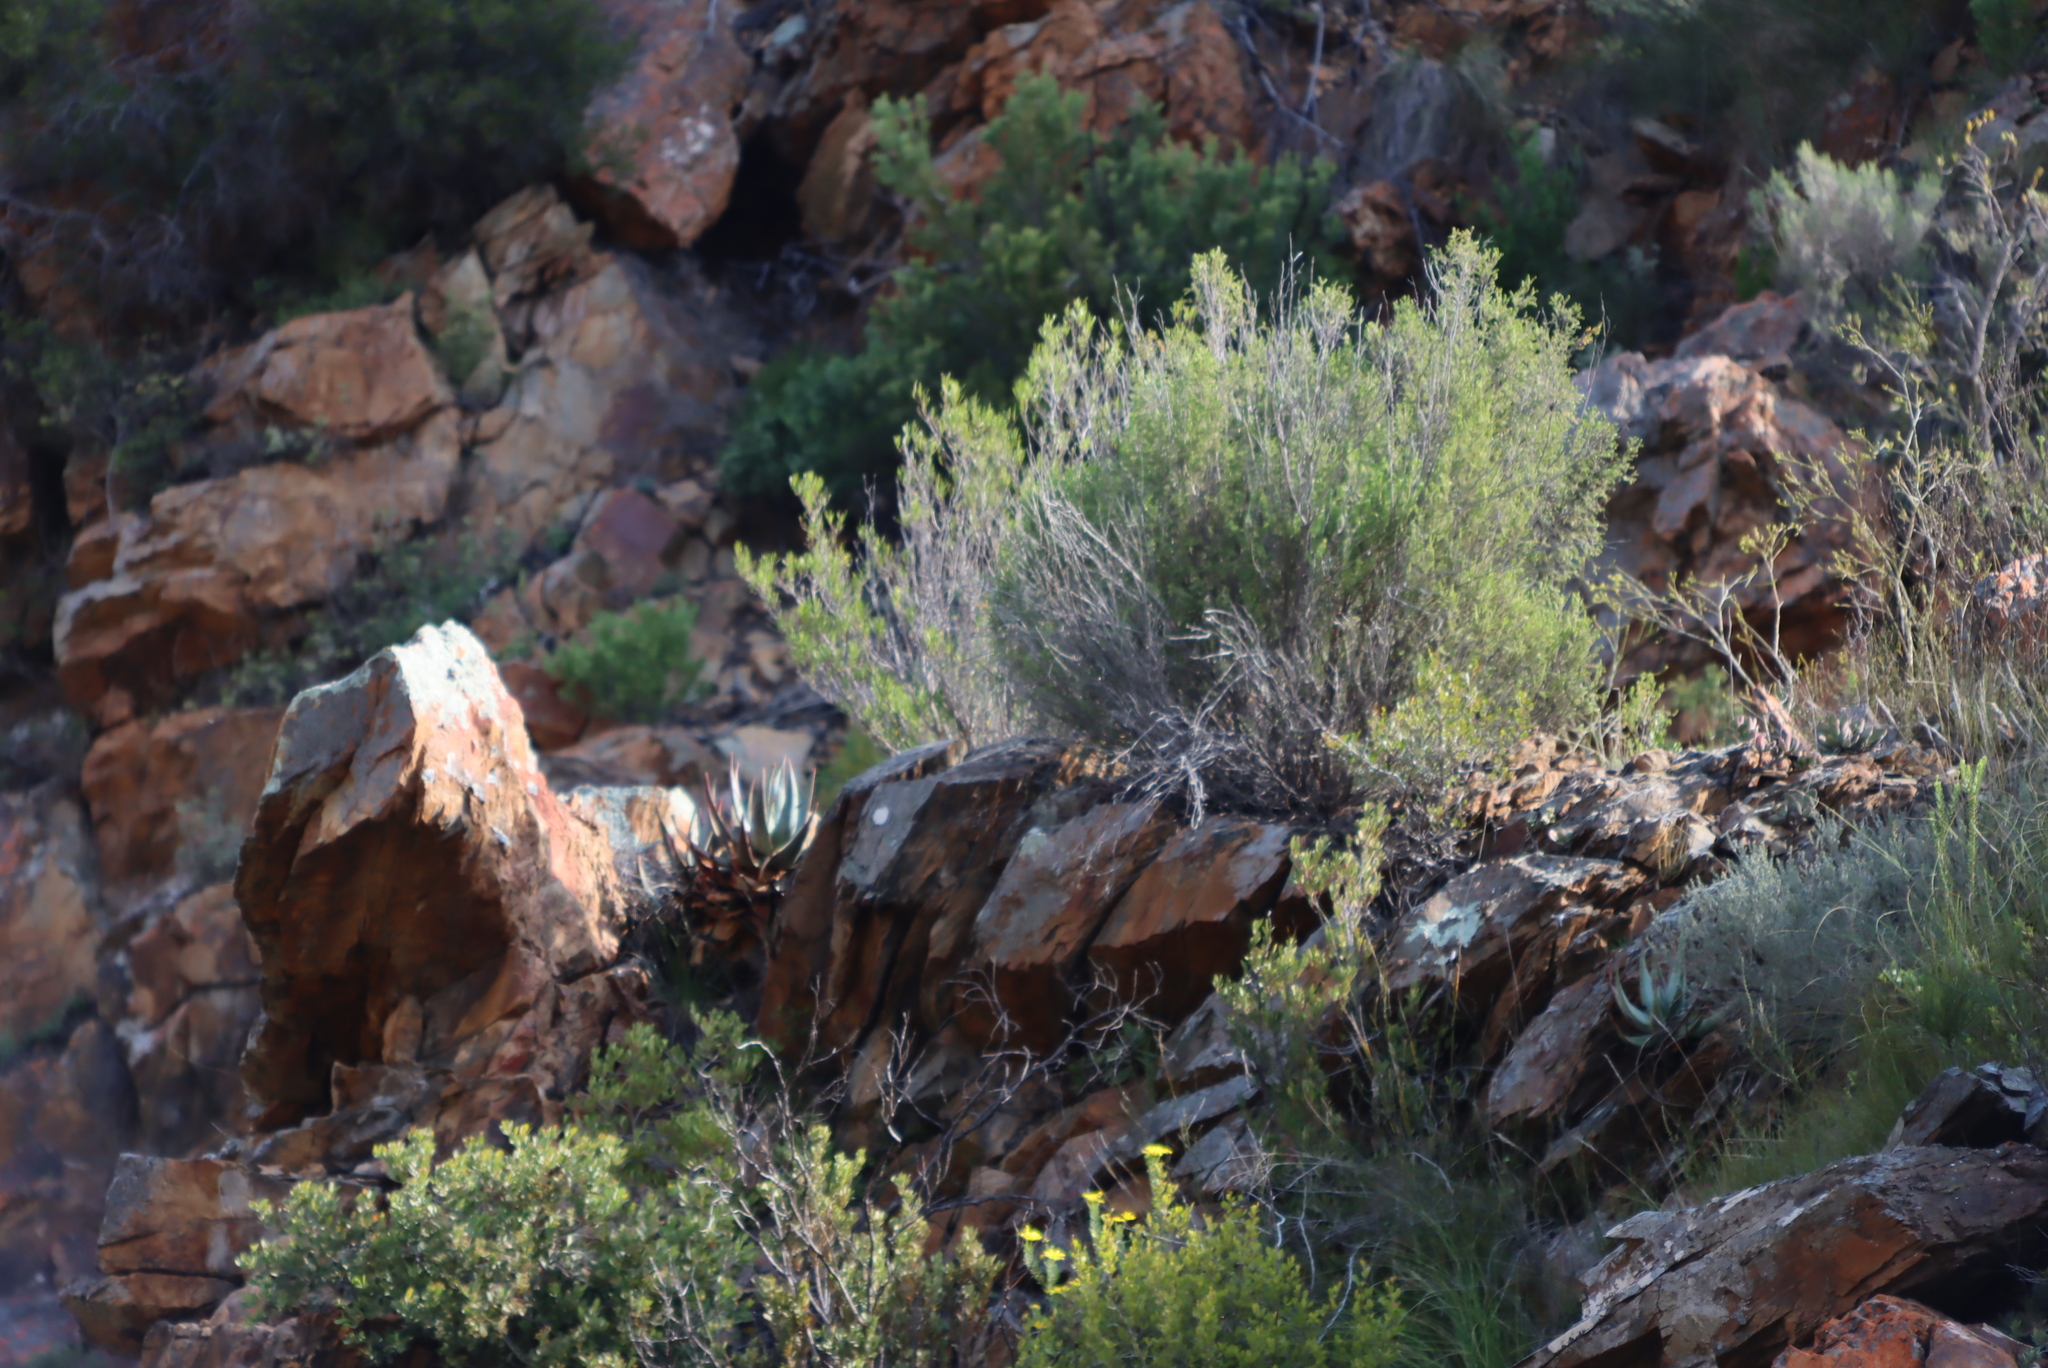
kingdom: Plantae
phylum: Tracheophyta
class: Liliopsida
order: Asparagales
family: Asphodelaceae
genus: Aloe
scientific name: Aloe comptonii
